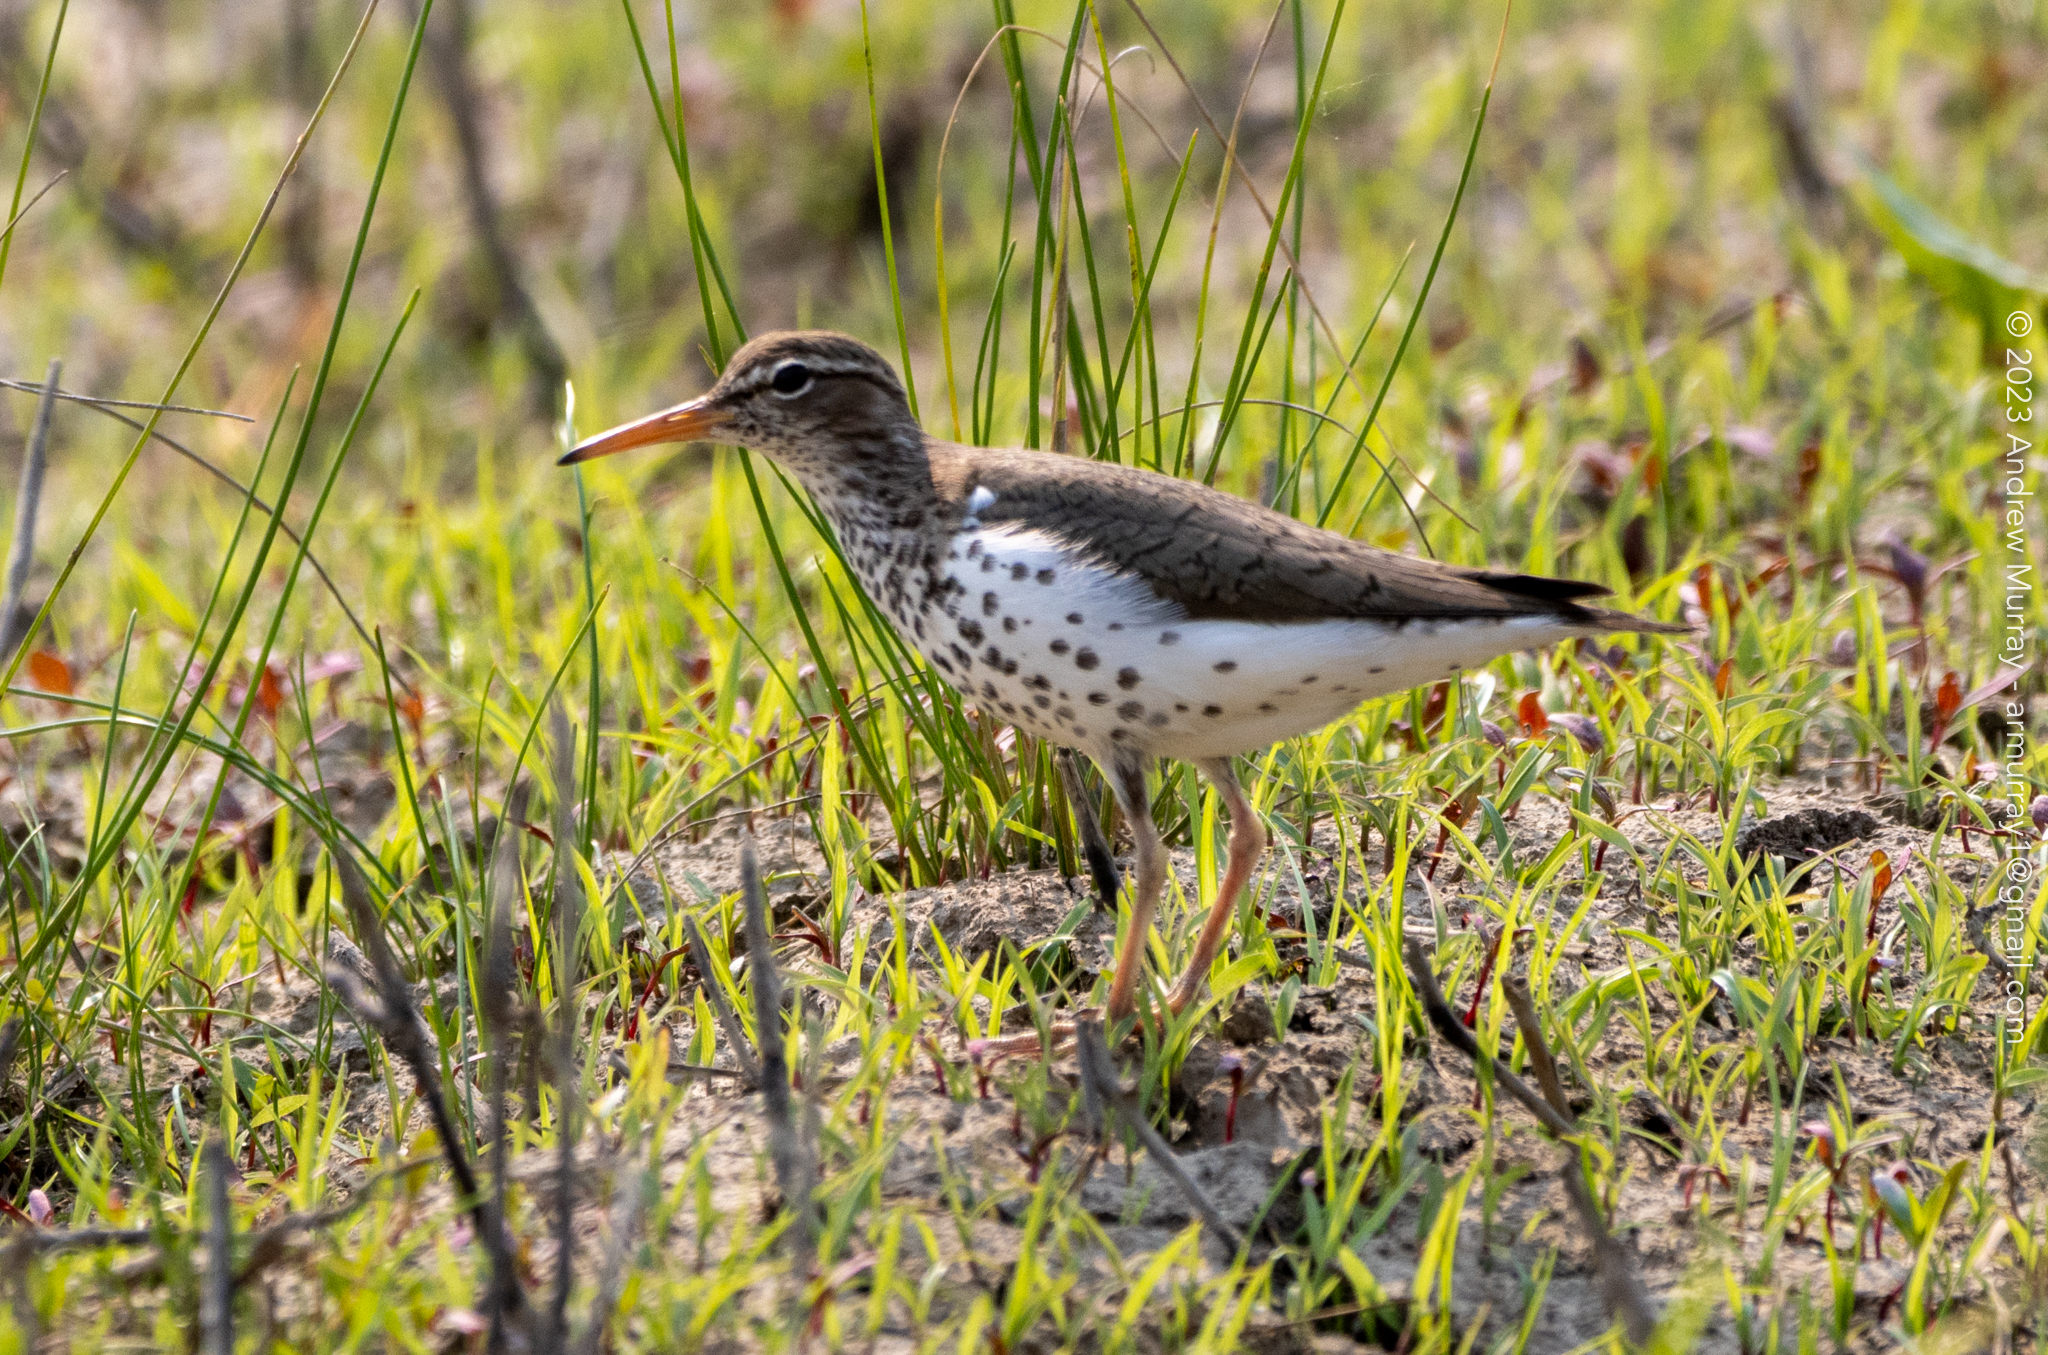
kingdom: Animalia
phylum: Chordata
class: Aves
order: Charadriiformes
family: Scolopacidae
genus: Actitis
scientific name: Actitis macularius
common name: Spotted sandpiper
